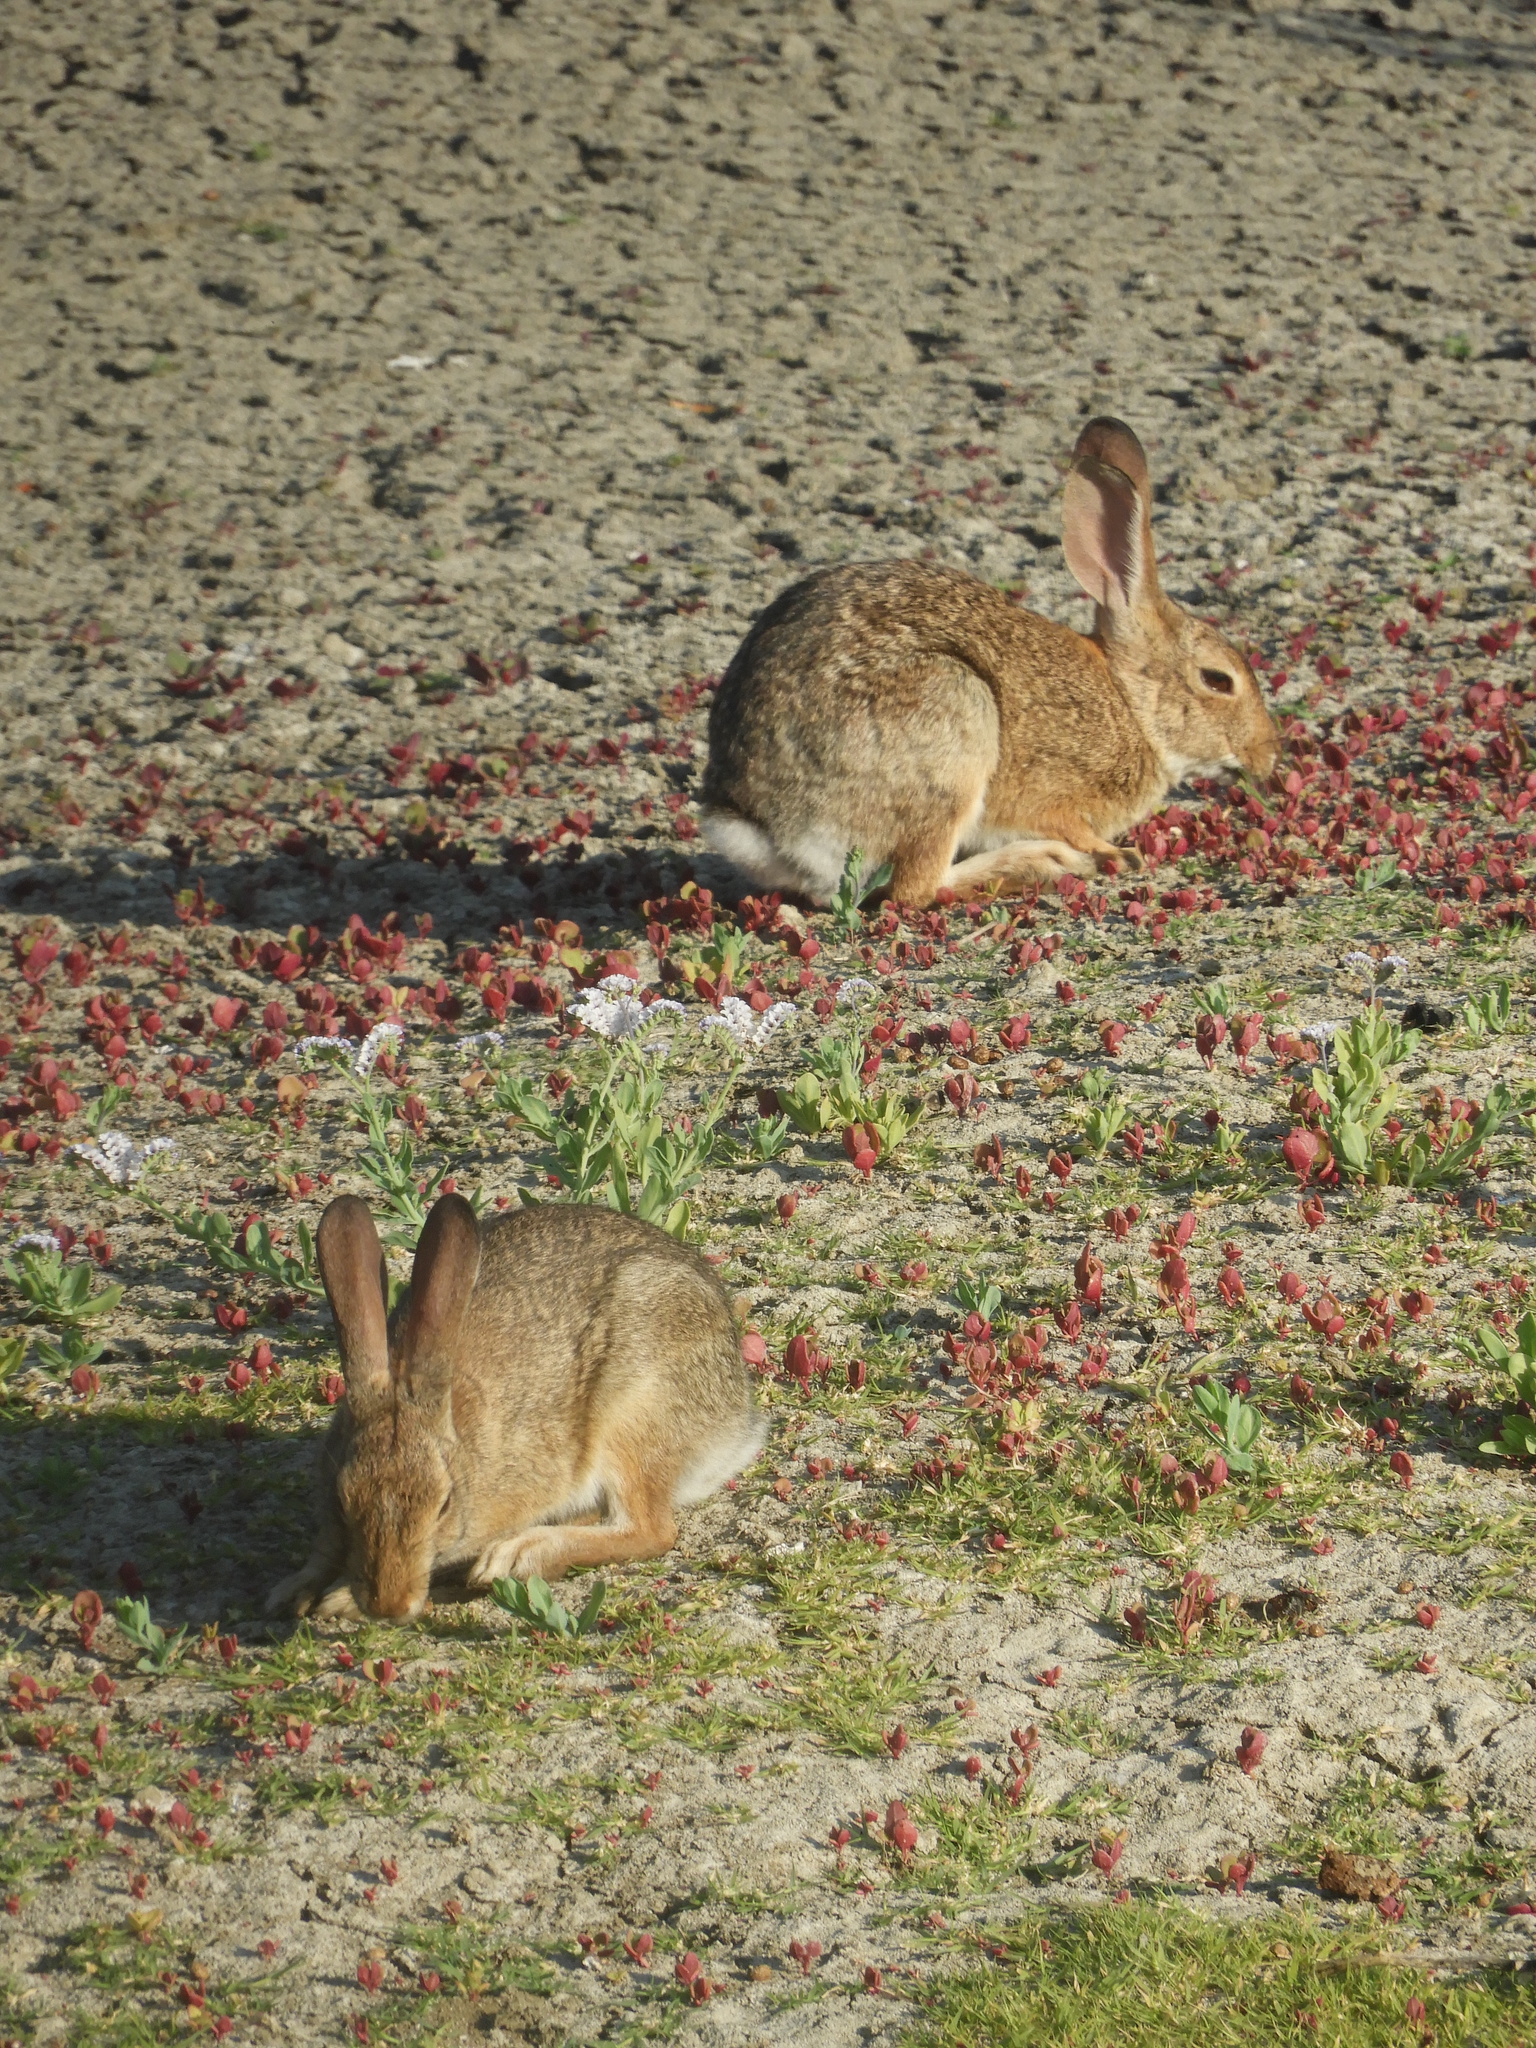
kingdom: Animalia
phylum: Chordata
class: Mammalia
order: Lagomorpha
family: Leporidae
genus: Sylvilagus
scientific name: Sylvilagus audubonii
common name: Desert cottontail
